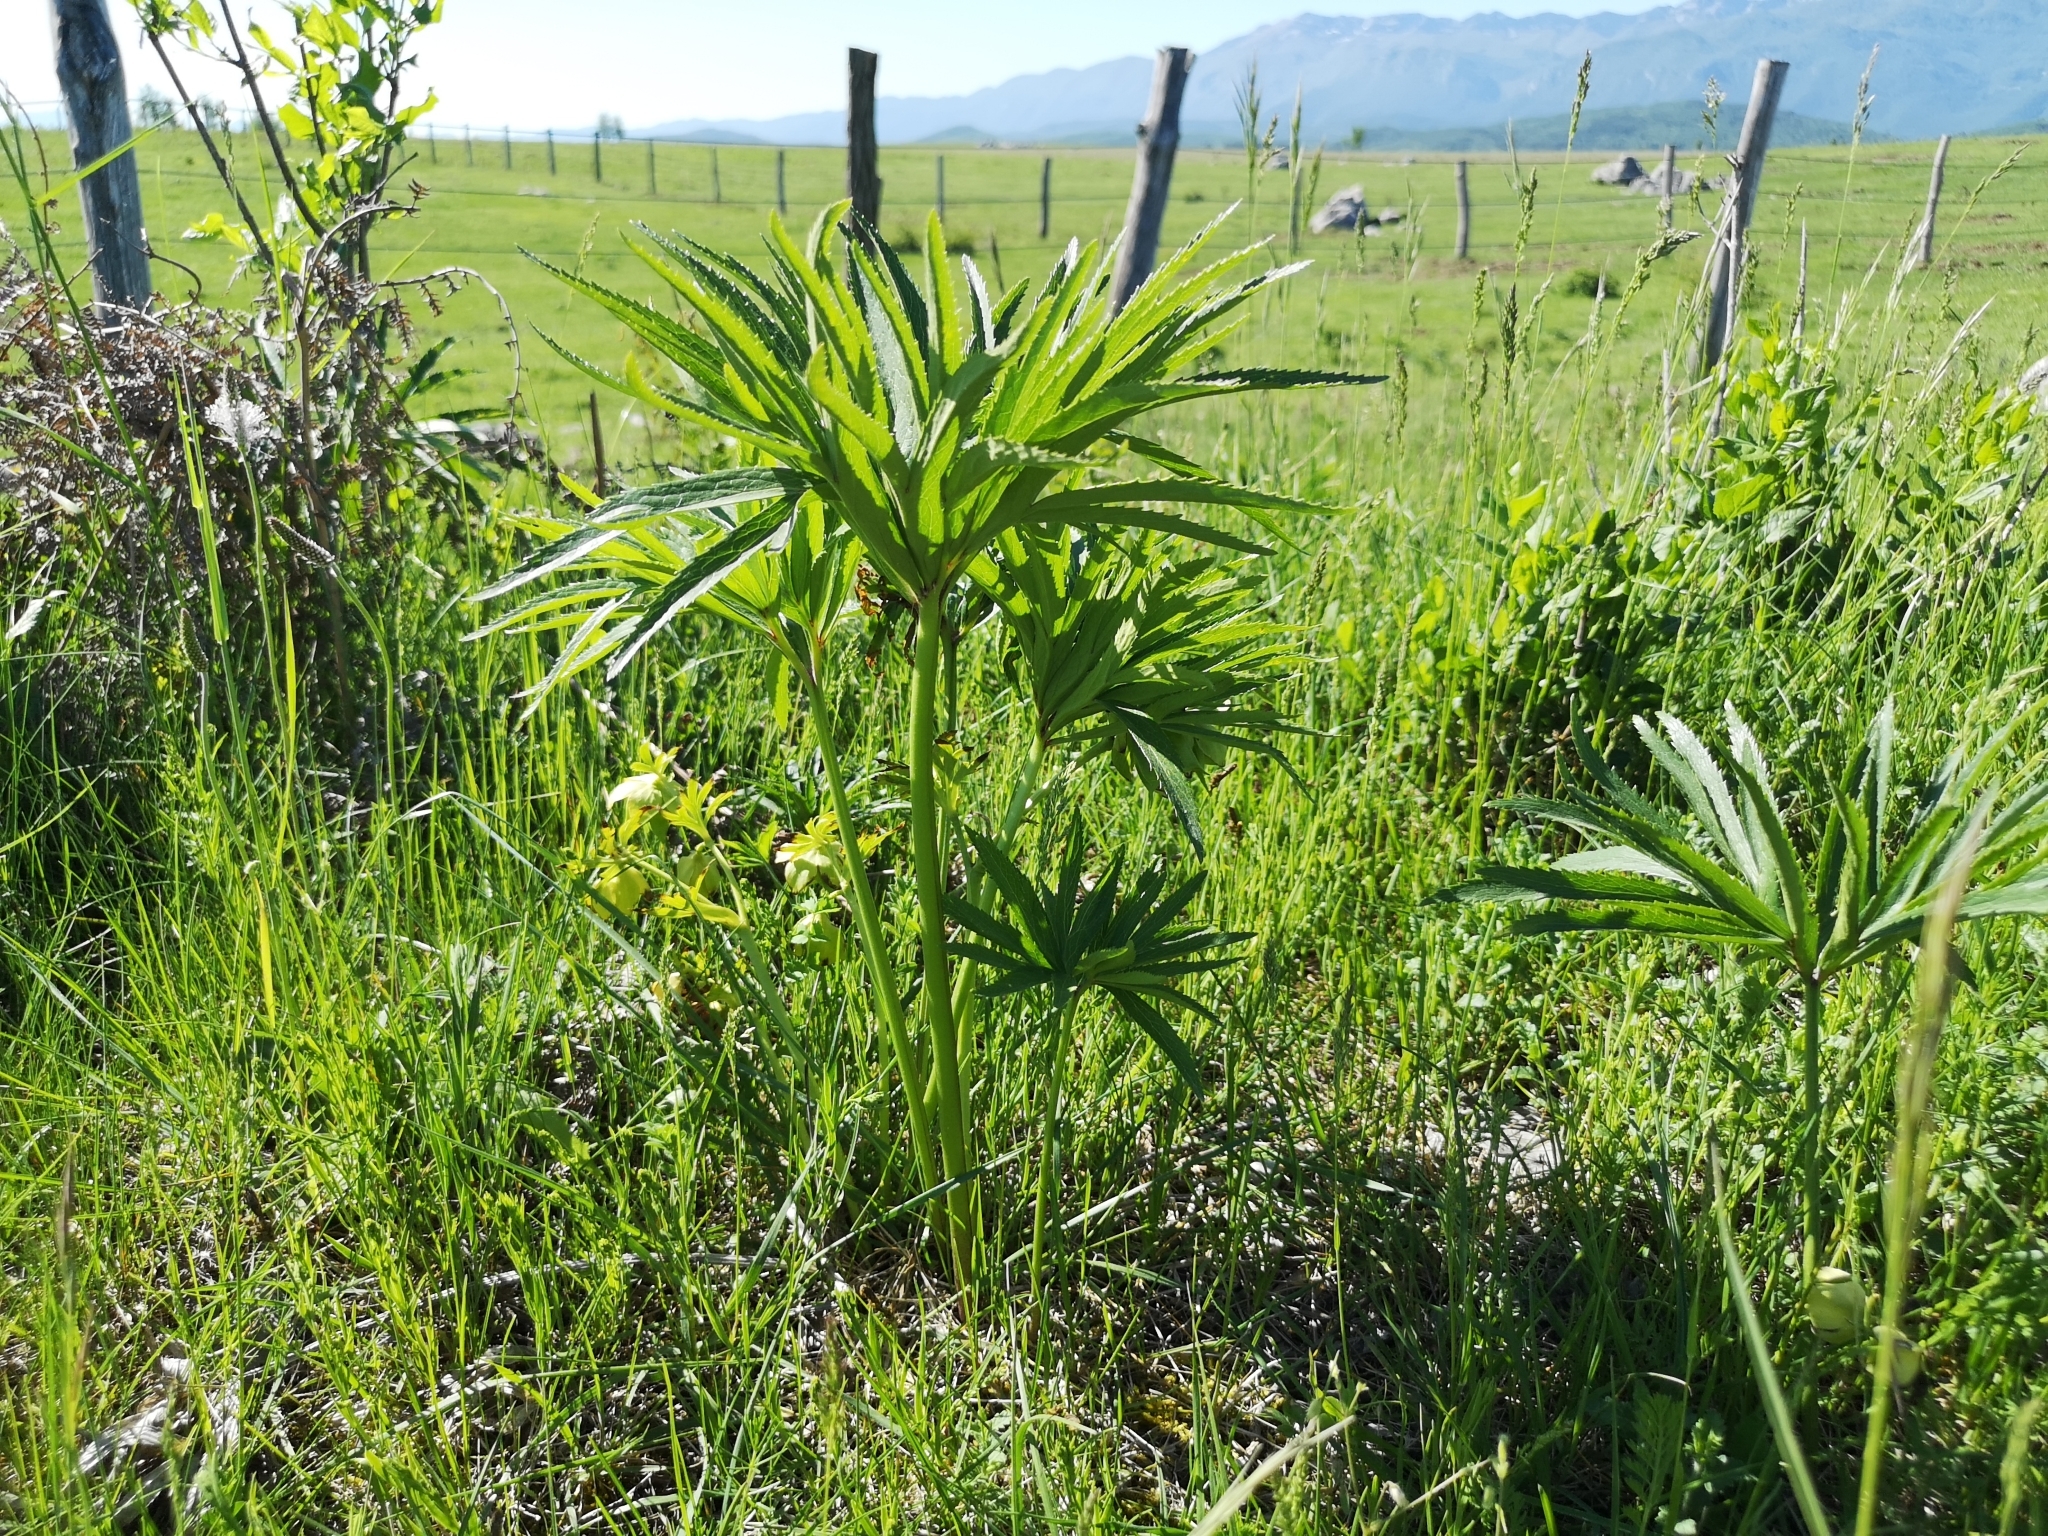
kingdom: Plantae
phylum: Tracheophyta
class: Magnoliopsida
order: Ranunculales
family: Ranunculaceae
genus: Helleborus
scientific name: Helleborus multifidus
